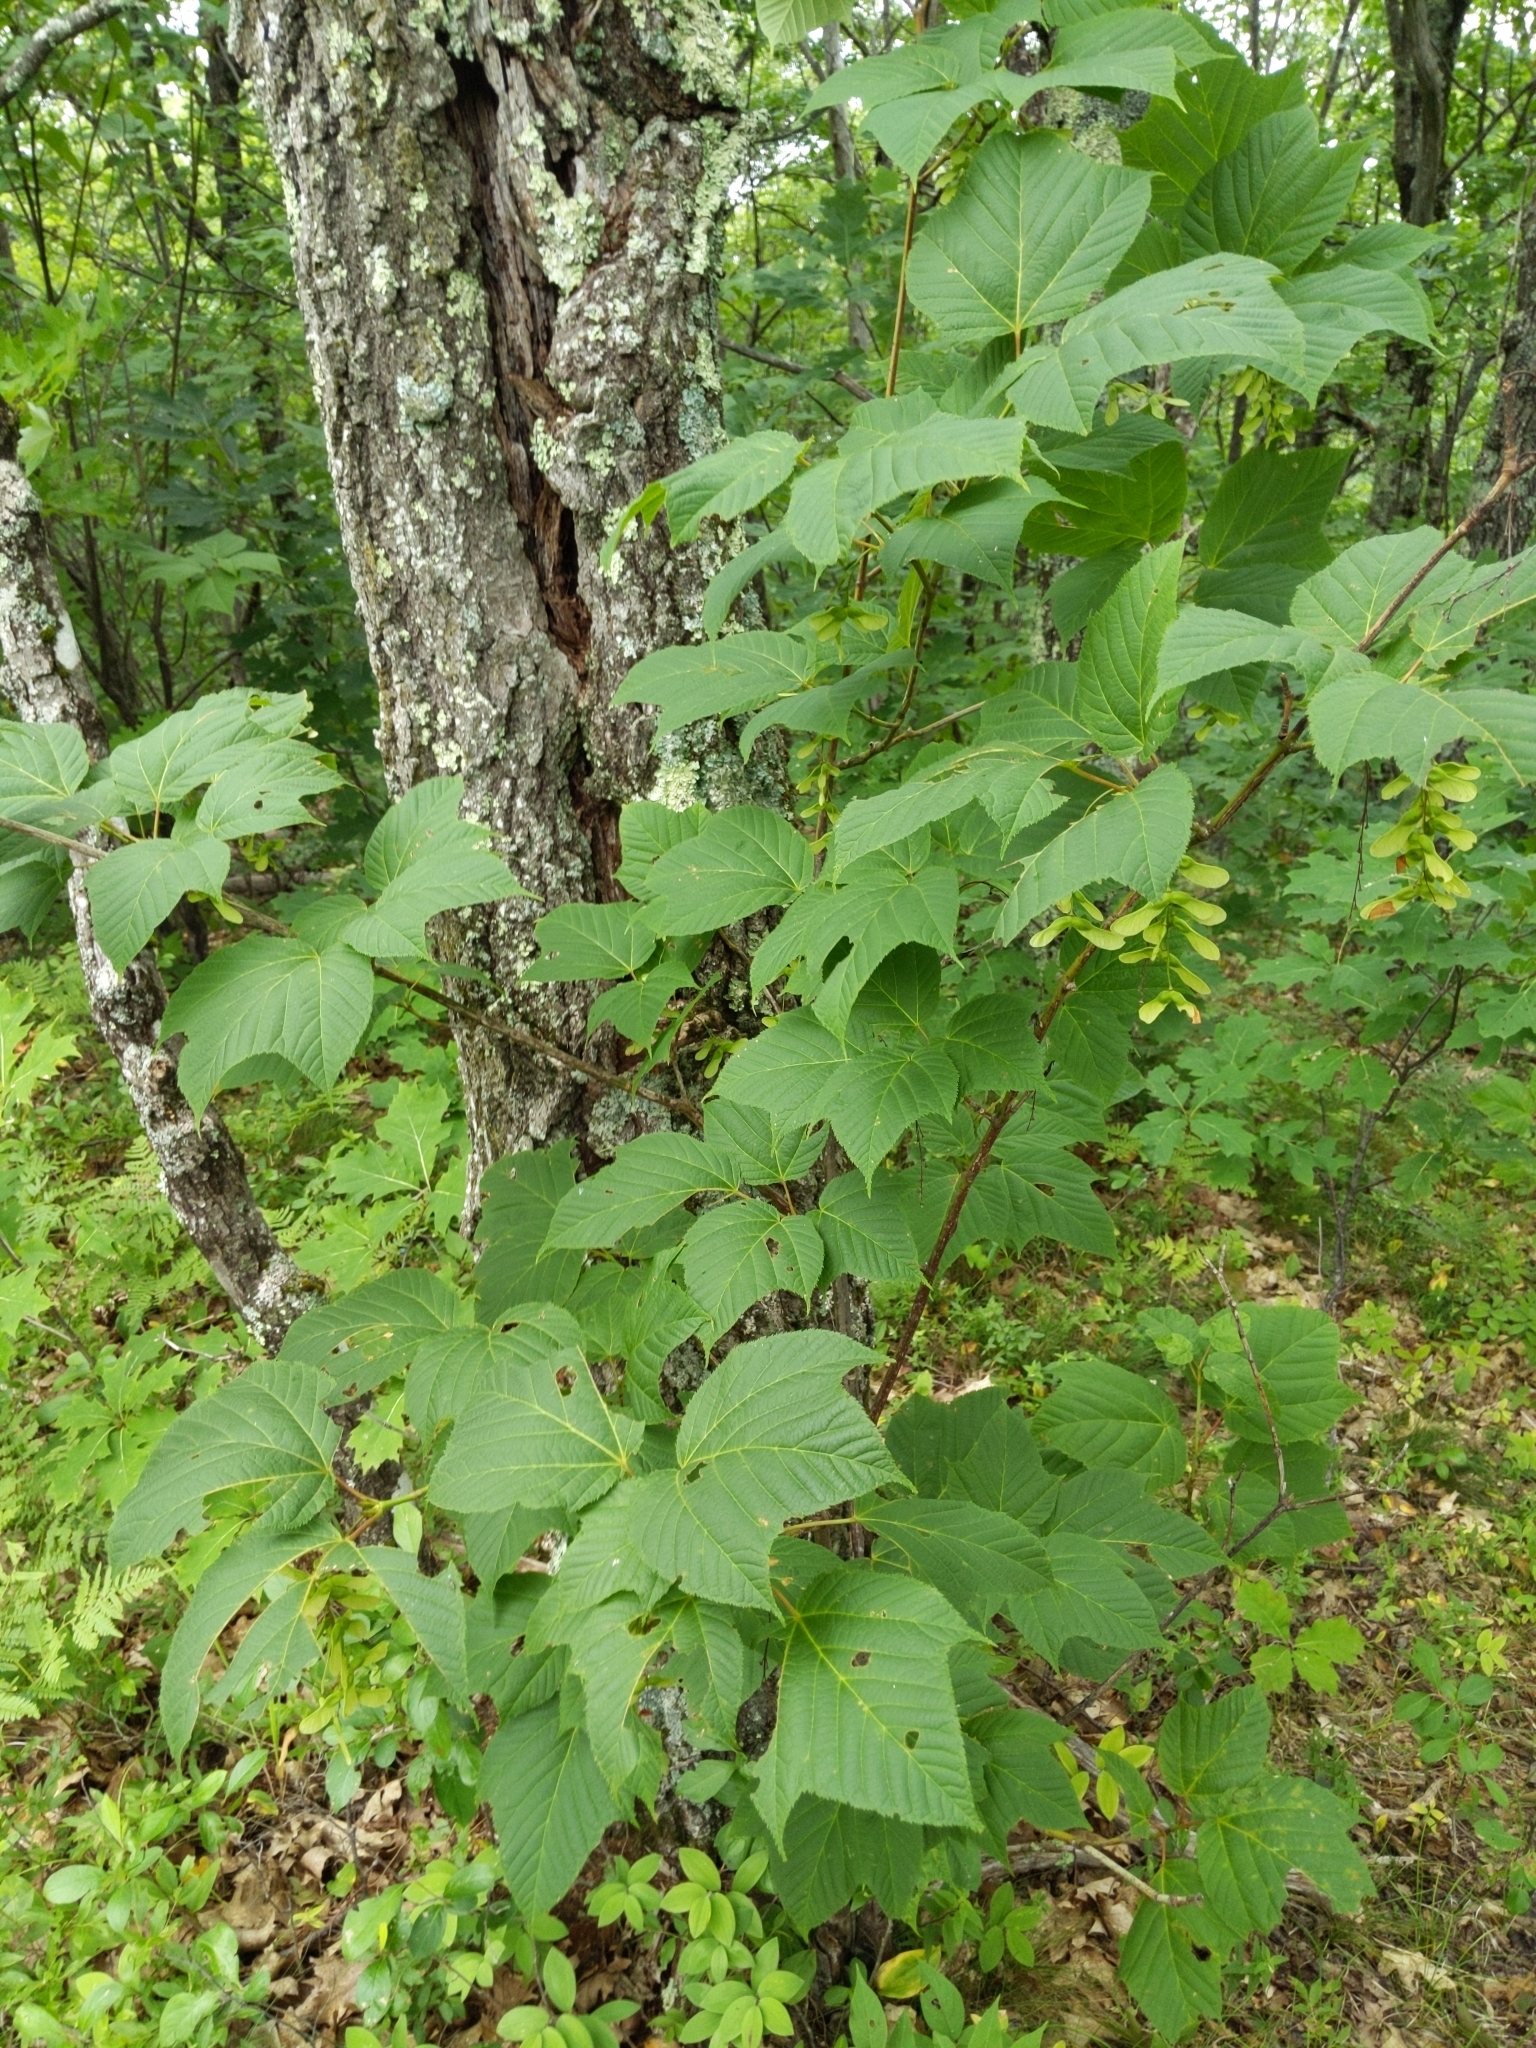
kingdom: Plantae
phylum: Tracheophyta
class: Magnoliopsida
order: Sapindales
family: Sapindaceae
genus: Acer
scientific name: Acer pensylvanicum
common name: Moosewood
